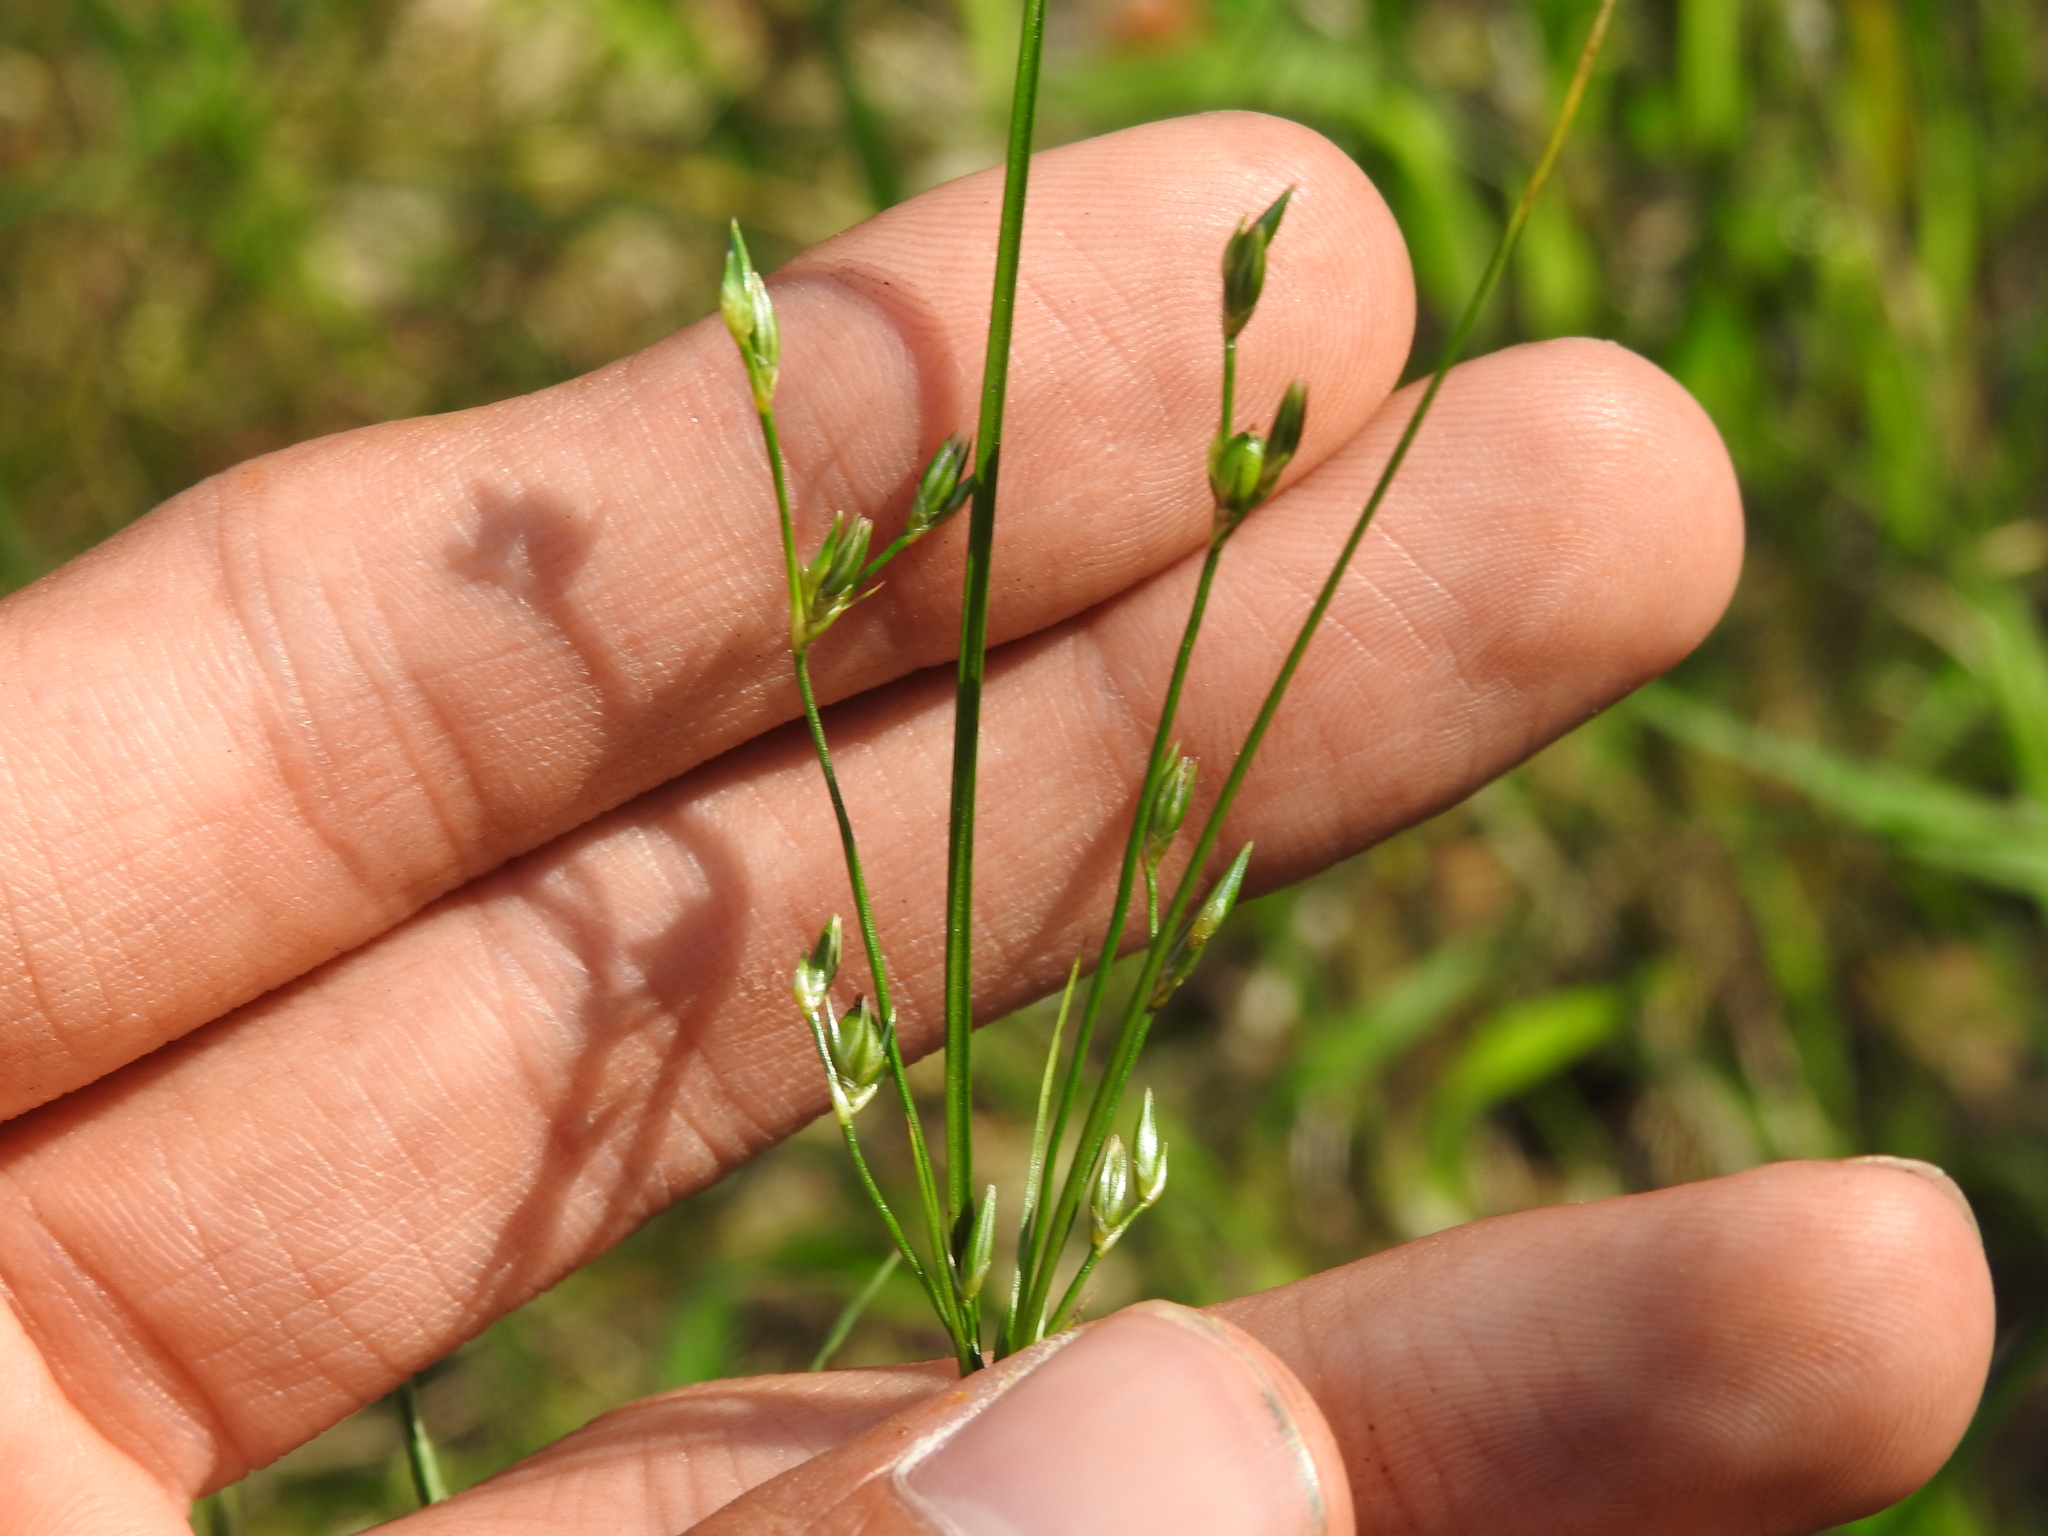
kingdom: Plantae
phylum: Tracheophyta
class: Liliopsida
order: Poales
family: Juncaceae
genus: Juncus
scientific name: Juncus tenuis
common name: Slender rush
